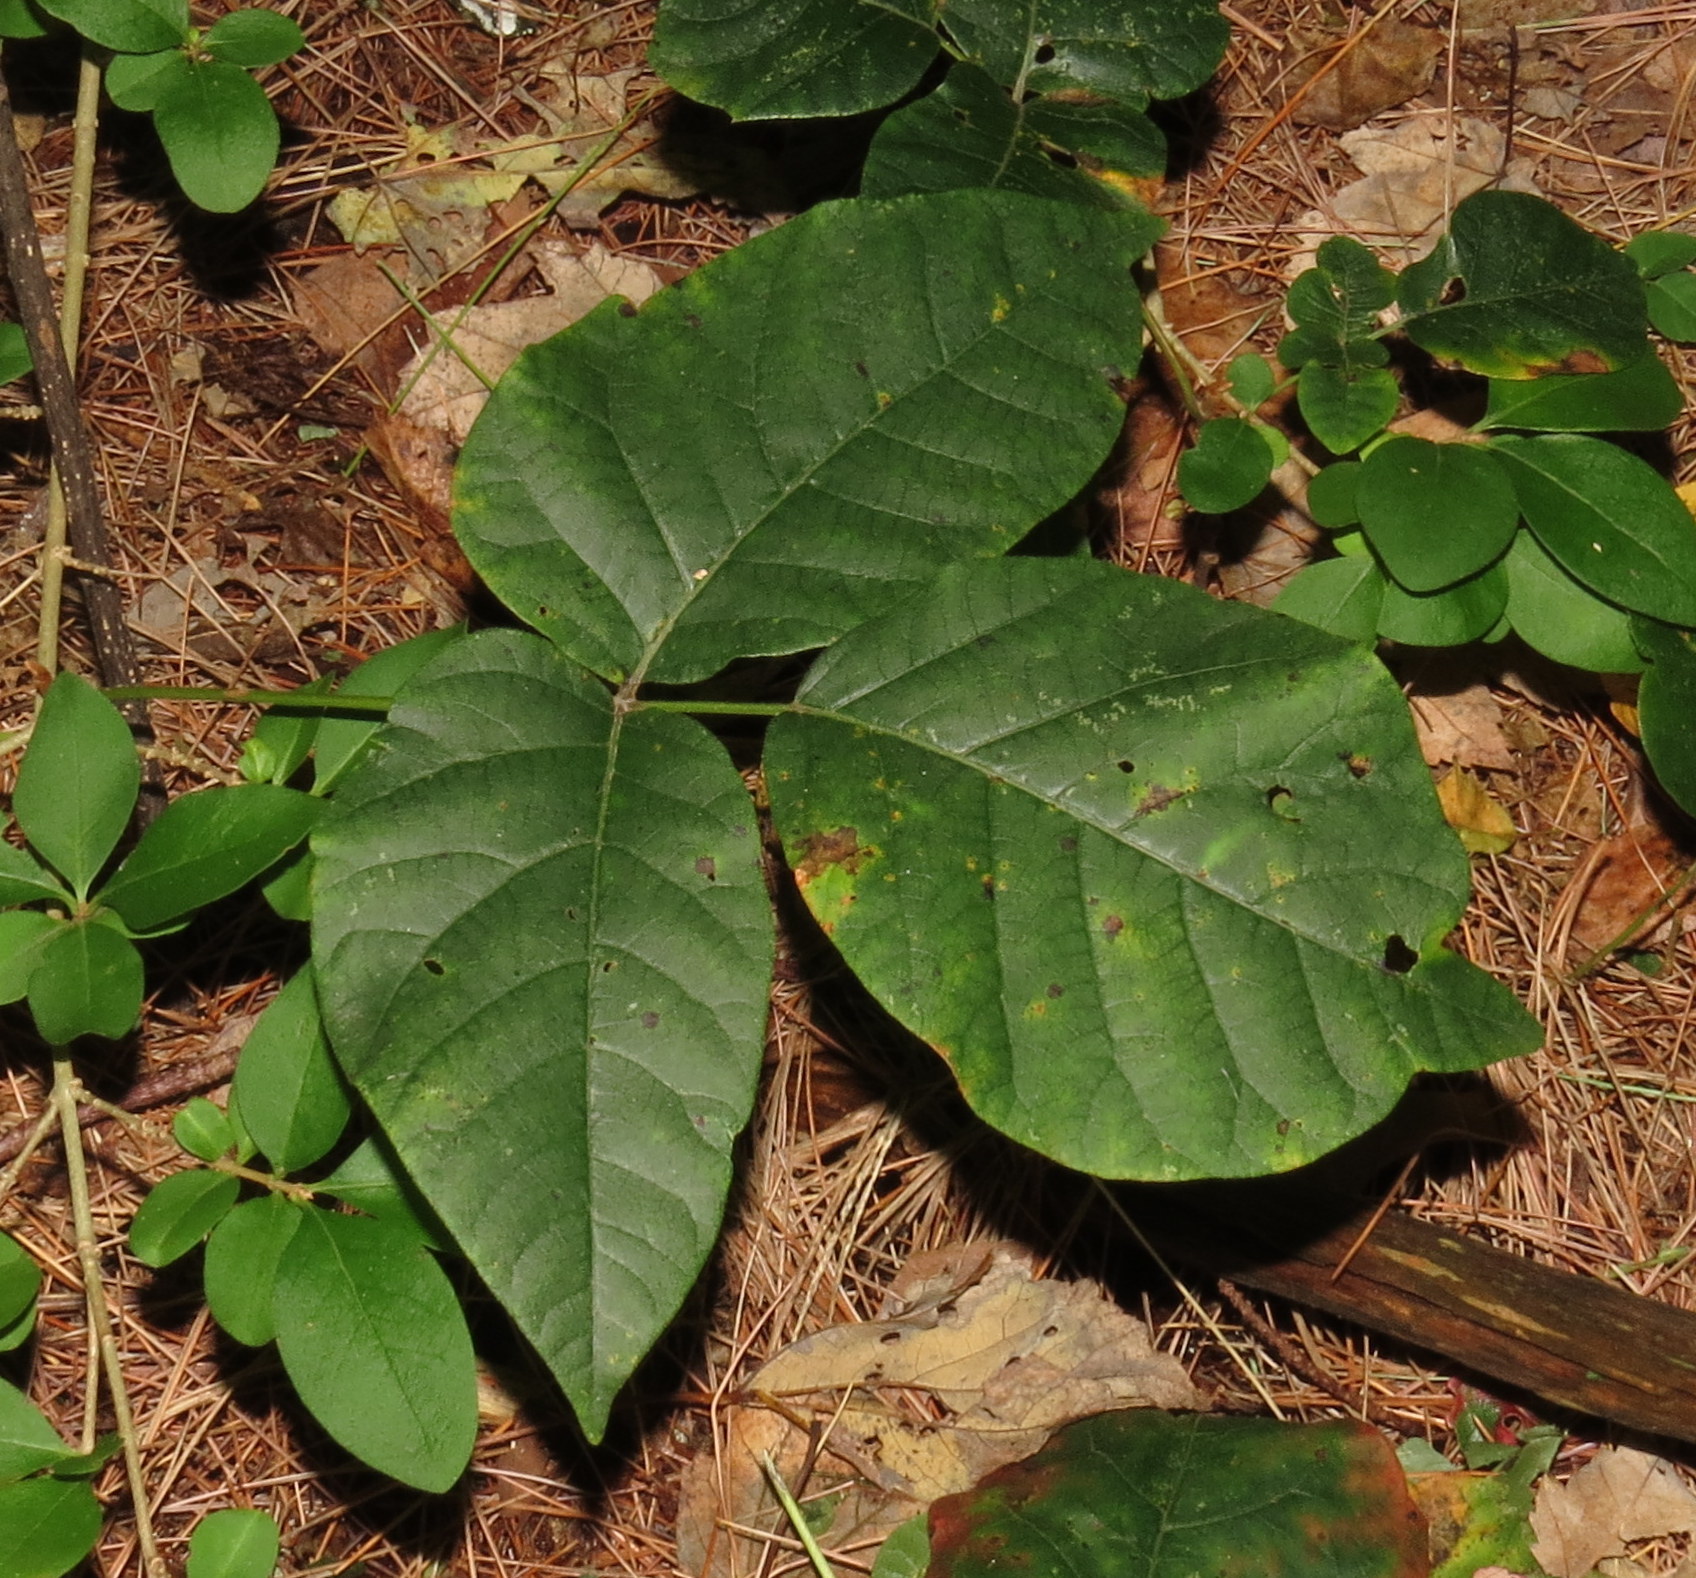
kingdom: Plantae
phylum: Tracheophyta
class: Magnoliopsida
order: Sapindales
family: Anacardiaceae
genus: Toxicodendron
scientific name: Toxicodendron radicans
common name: Poison ivy
